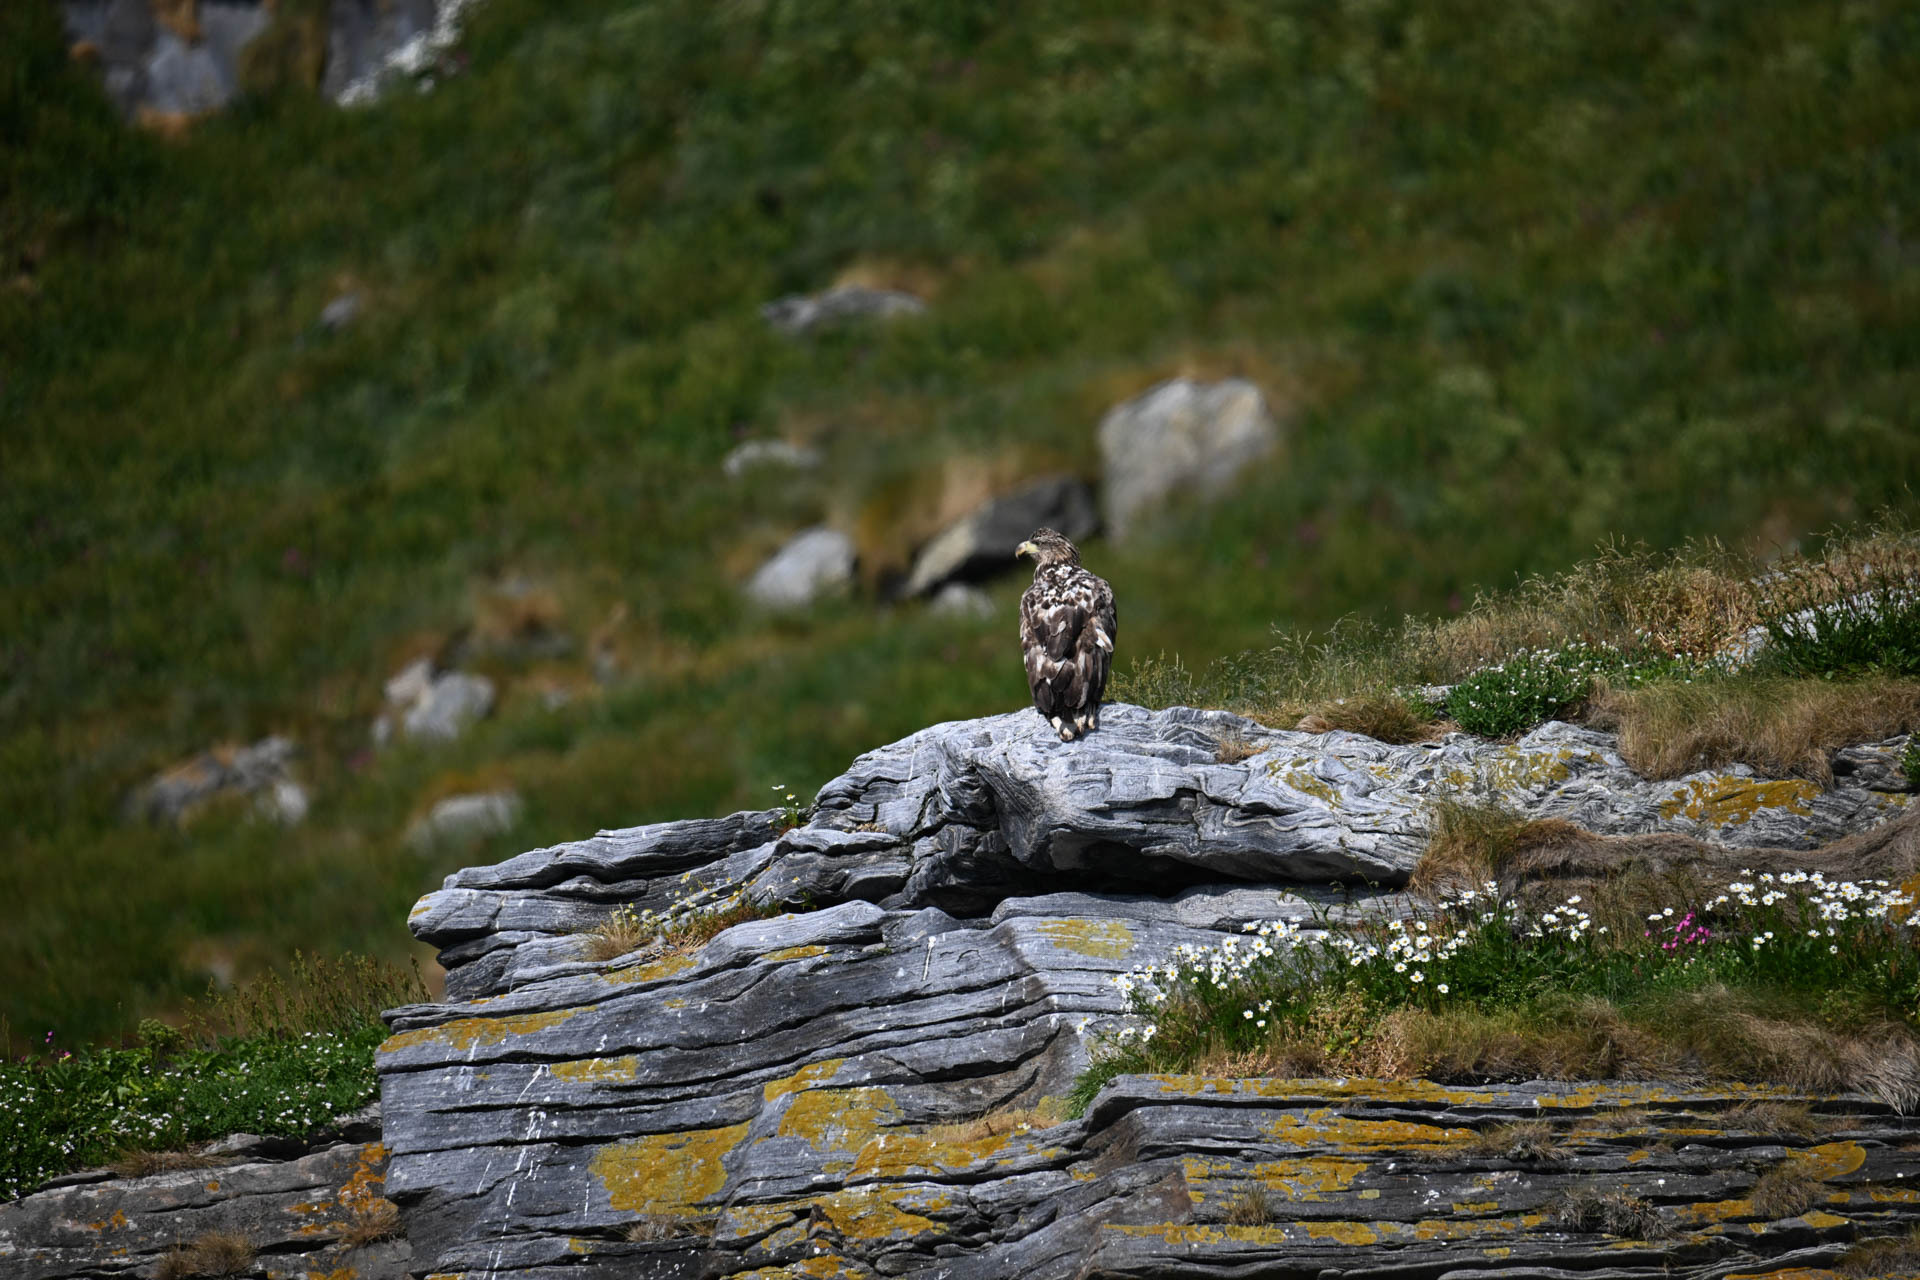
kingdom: Animalia
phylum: Chordata
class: Aves
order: Accipitriformes
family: Accipitridae
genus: Haliaeetus
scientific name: Haliaeetus albicilla
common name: White-tailed eagle
